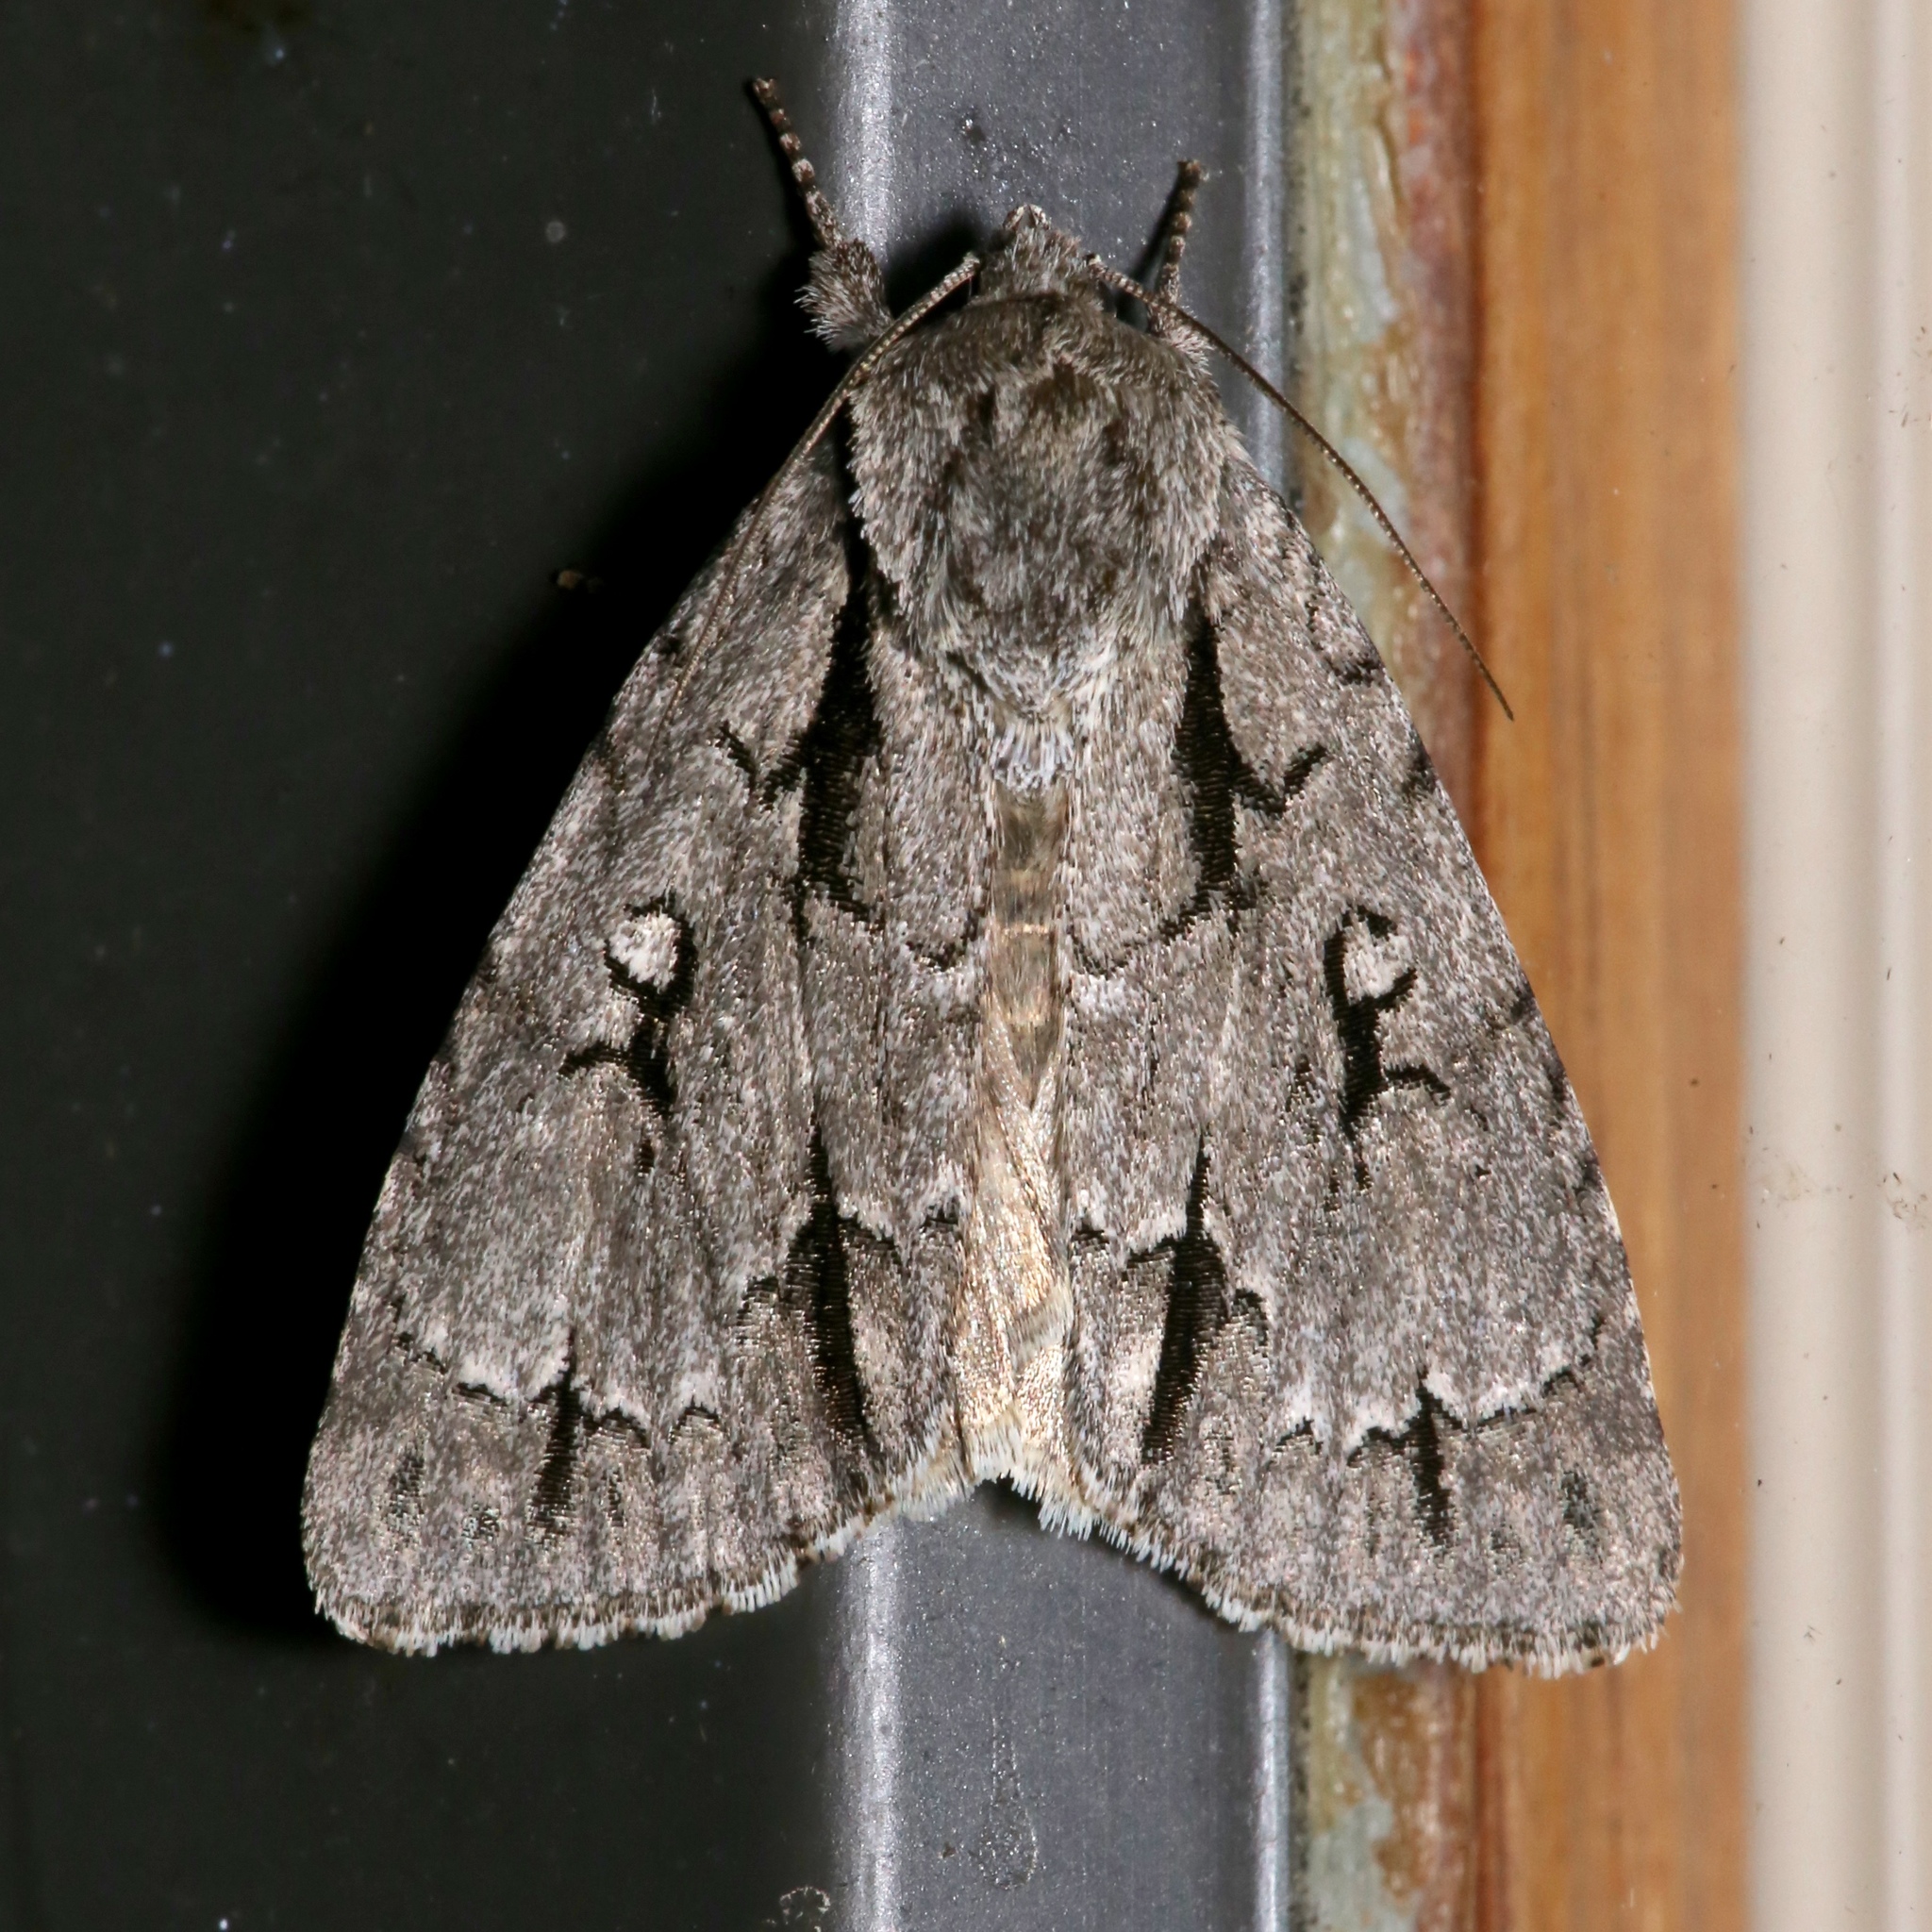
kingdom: Animalia
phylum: Arthropoda
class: Insecta
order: Lepidoptera
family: Noctuidae
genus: Acronicta
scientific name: Acronicta hasta
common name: Cherry dagger
